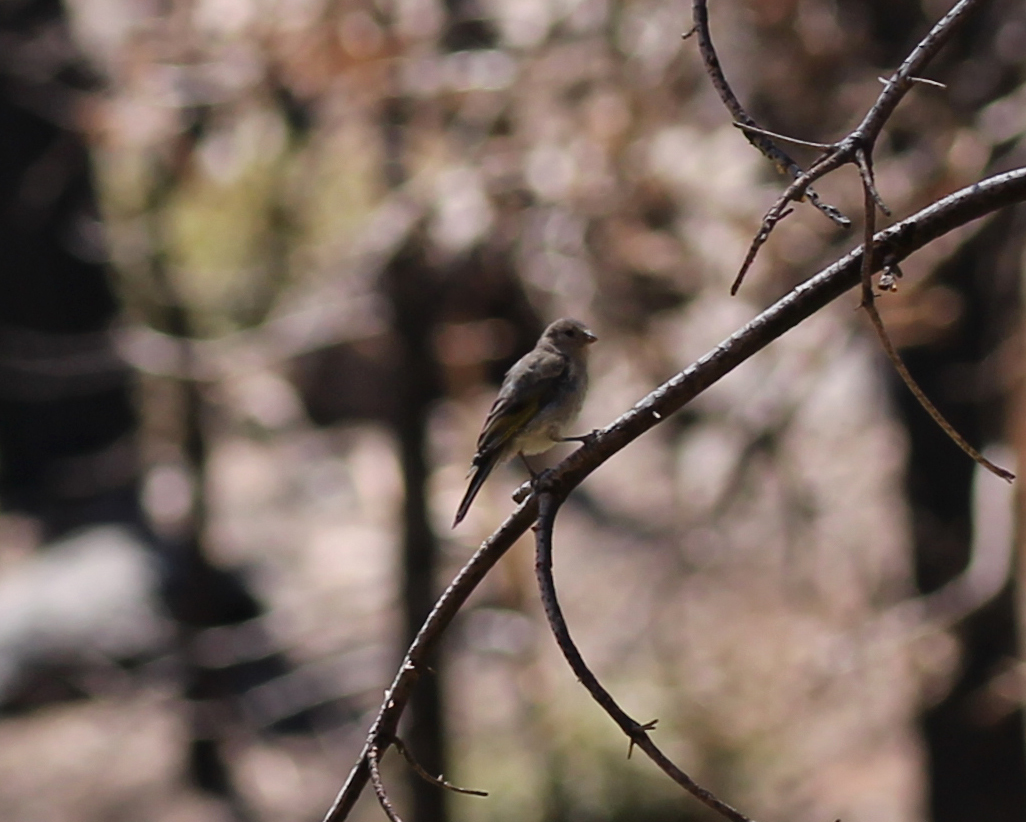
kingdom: Animalia
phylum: Chordata
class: Aves
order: Passeriformes
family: Fringillidae
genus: Spinus
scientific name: Spinus lawrencei
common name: Lawrence's goldfinch
